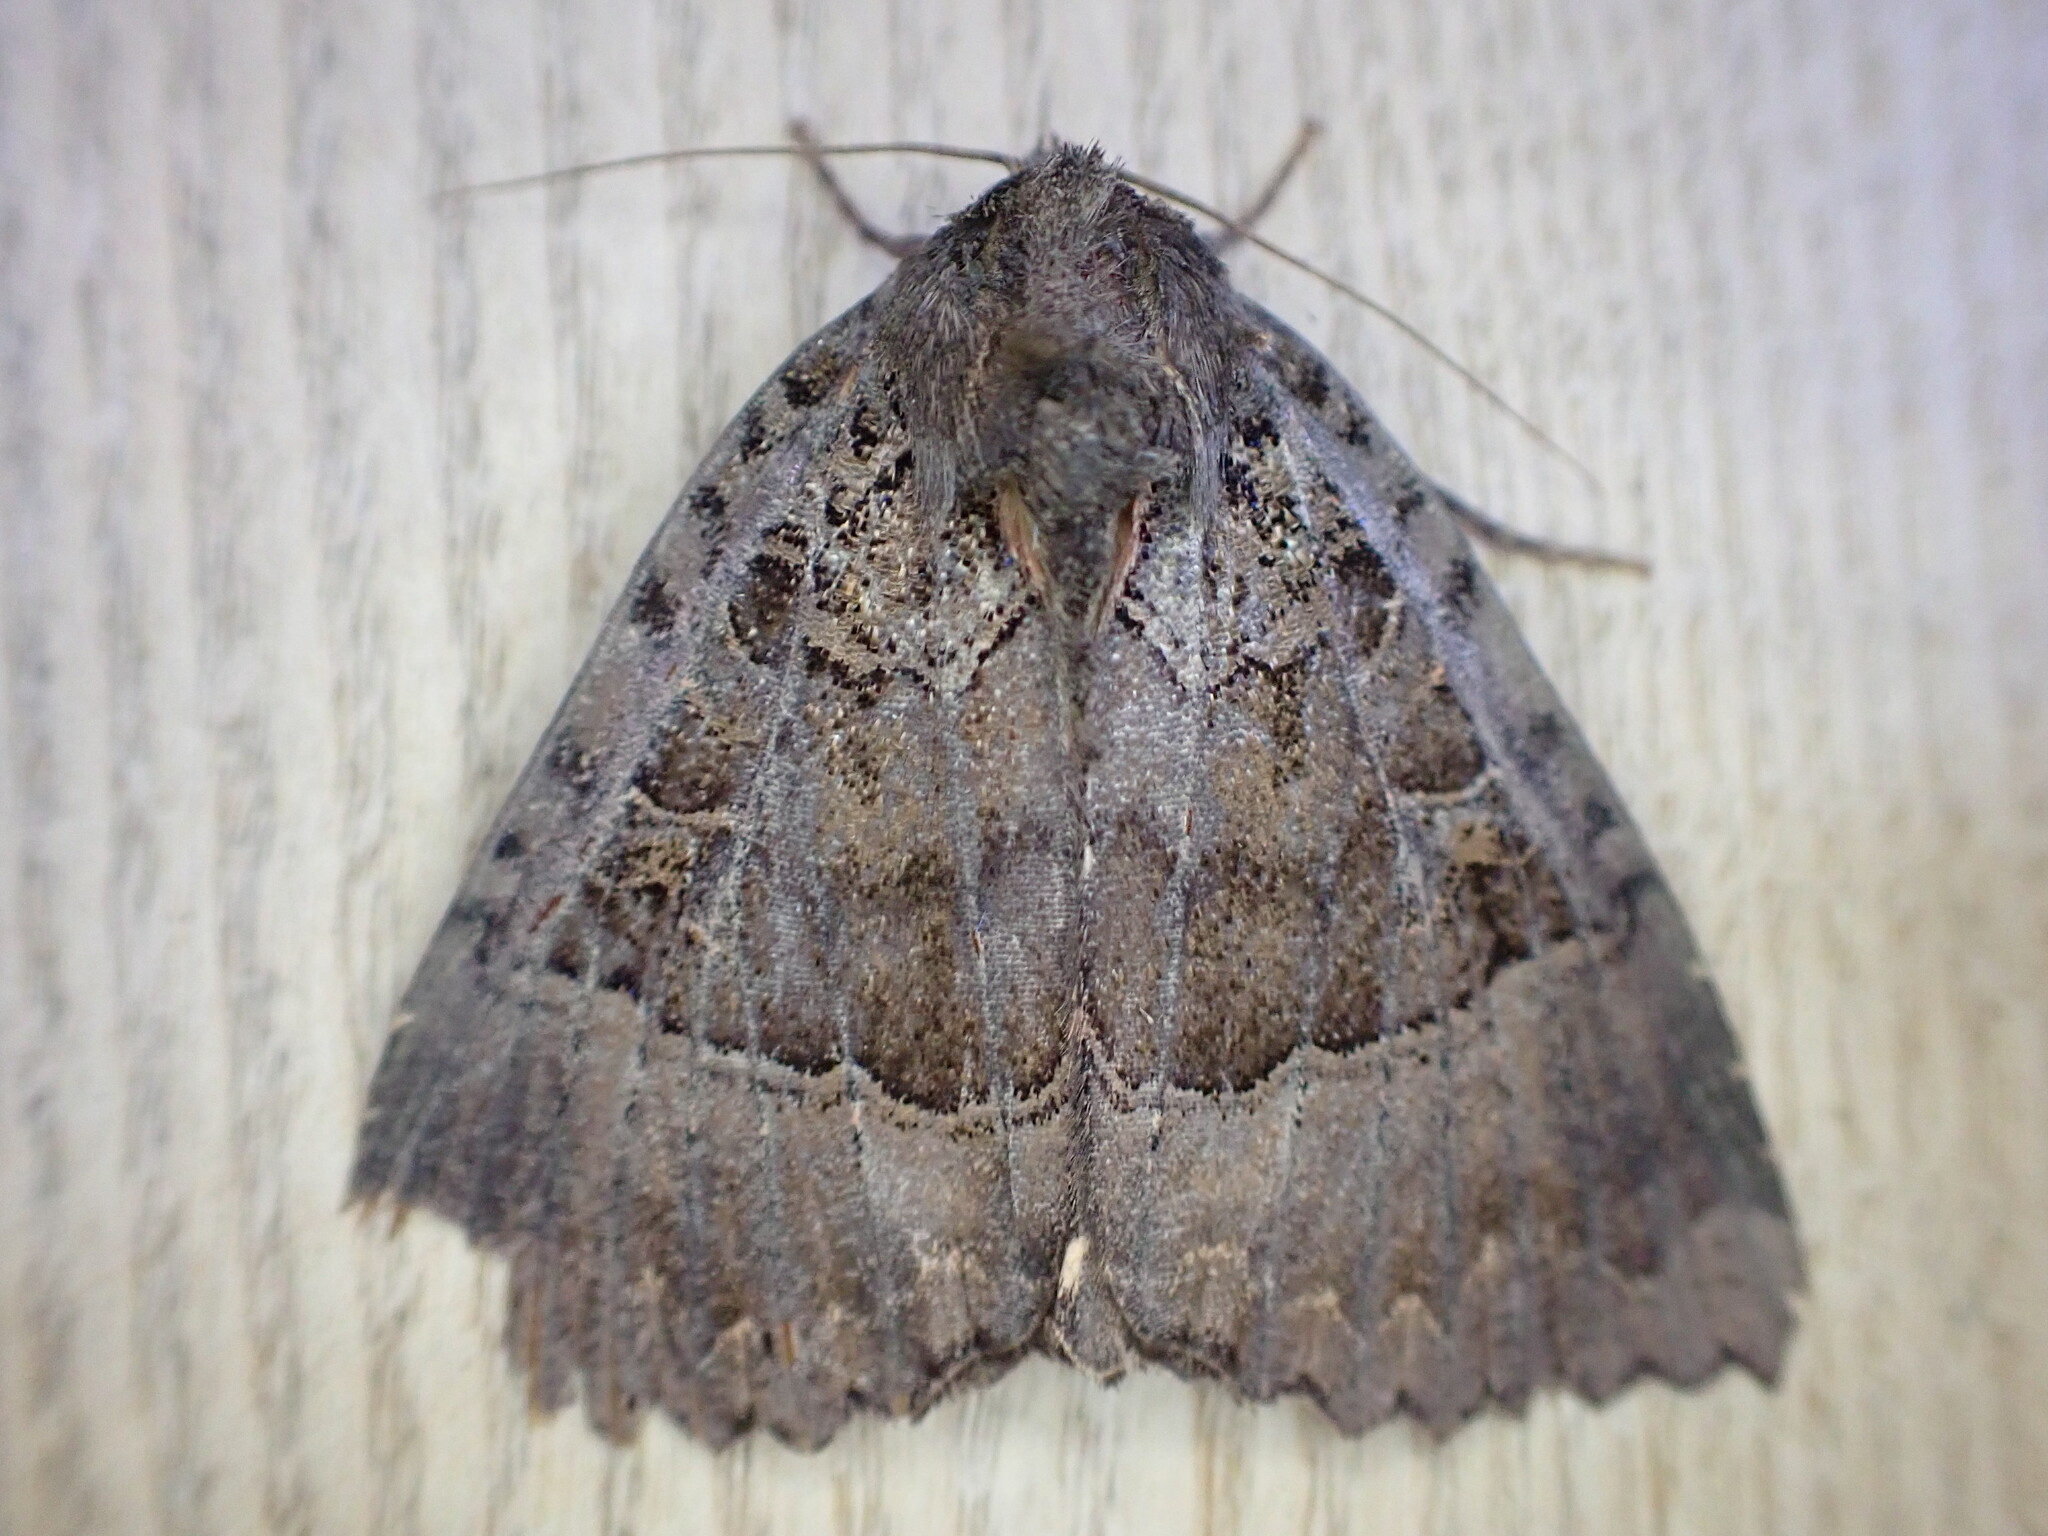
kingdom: Animalia
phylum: Arthropoda
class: Insecta
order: Lepidoptera
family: Noctuidae
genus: Mormo
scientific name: Mormo maura
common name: Old lady
